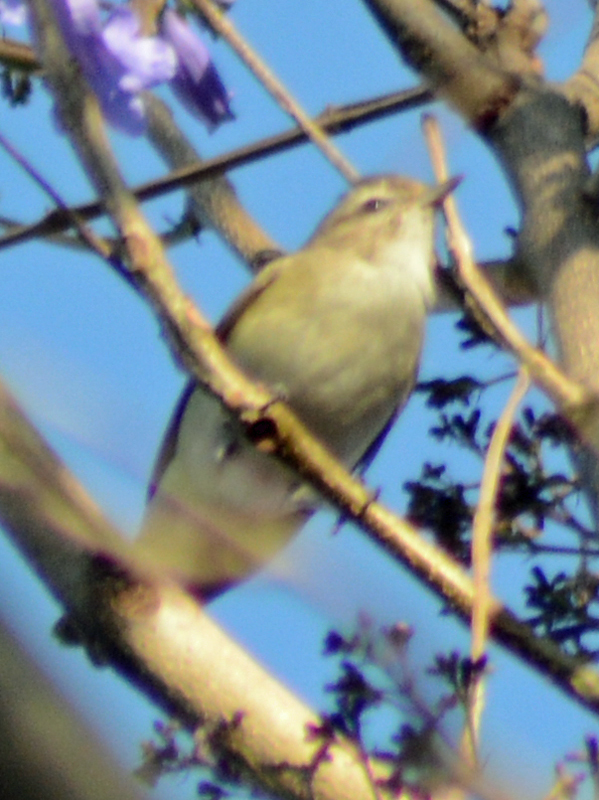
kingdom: Animalia
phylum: Chordata
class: Aves
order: Passeriformes
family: Vireonidae
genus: Vireo
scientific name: Vireo gilvus
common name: Warbling vireo
